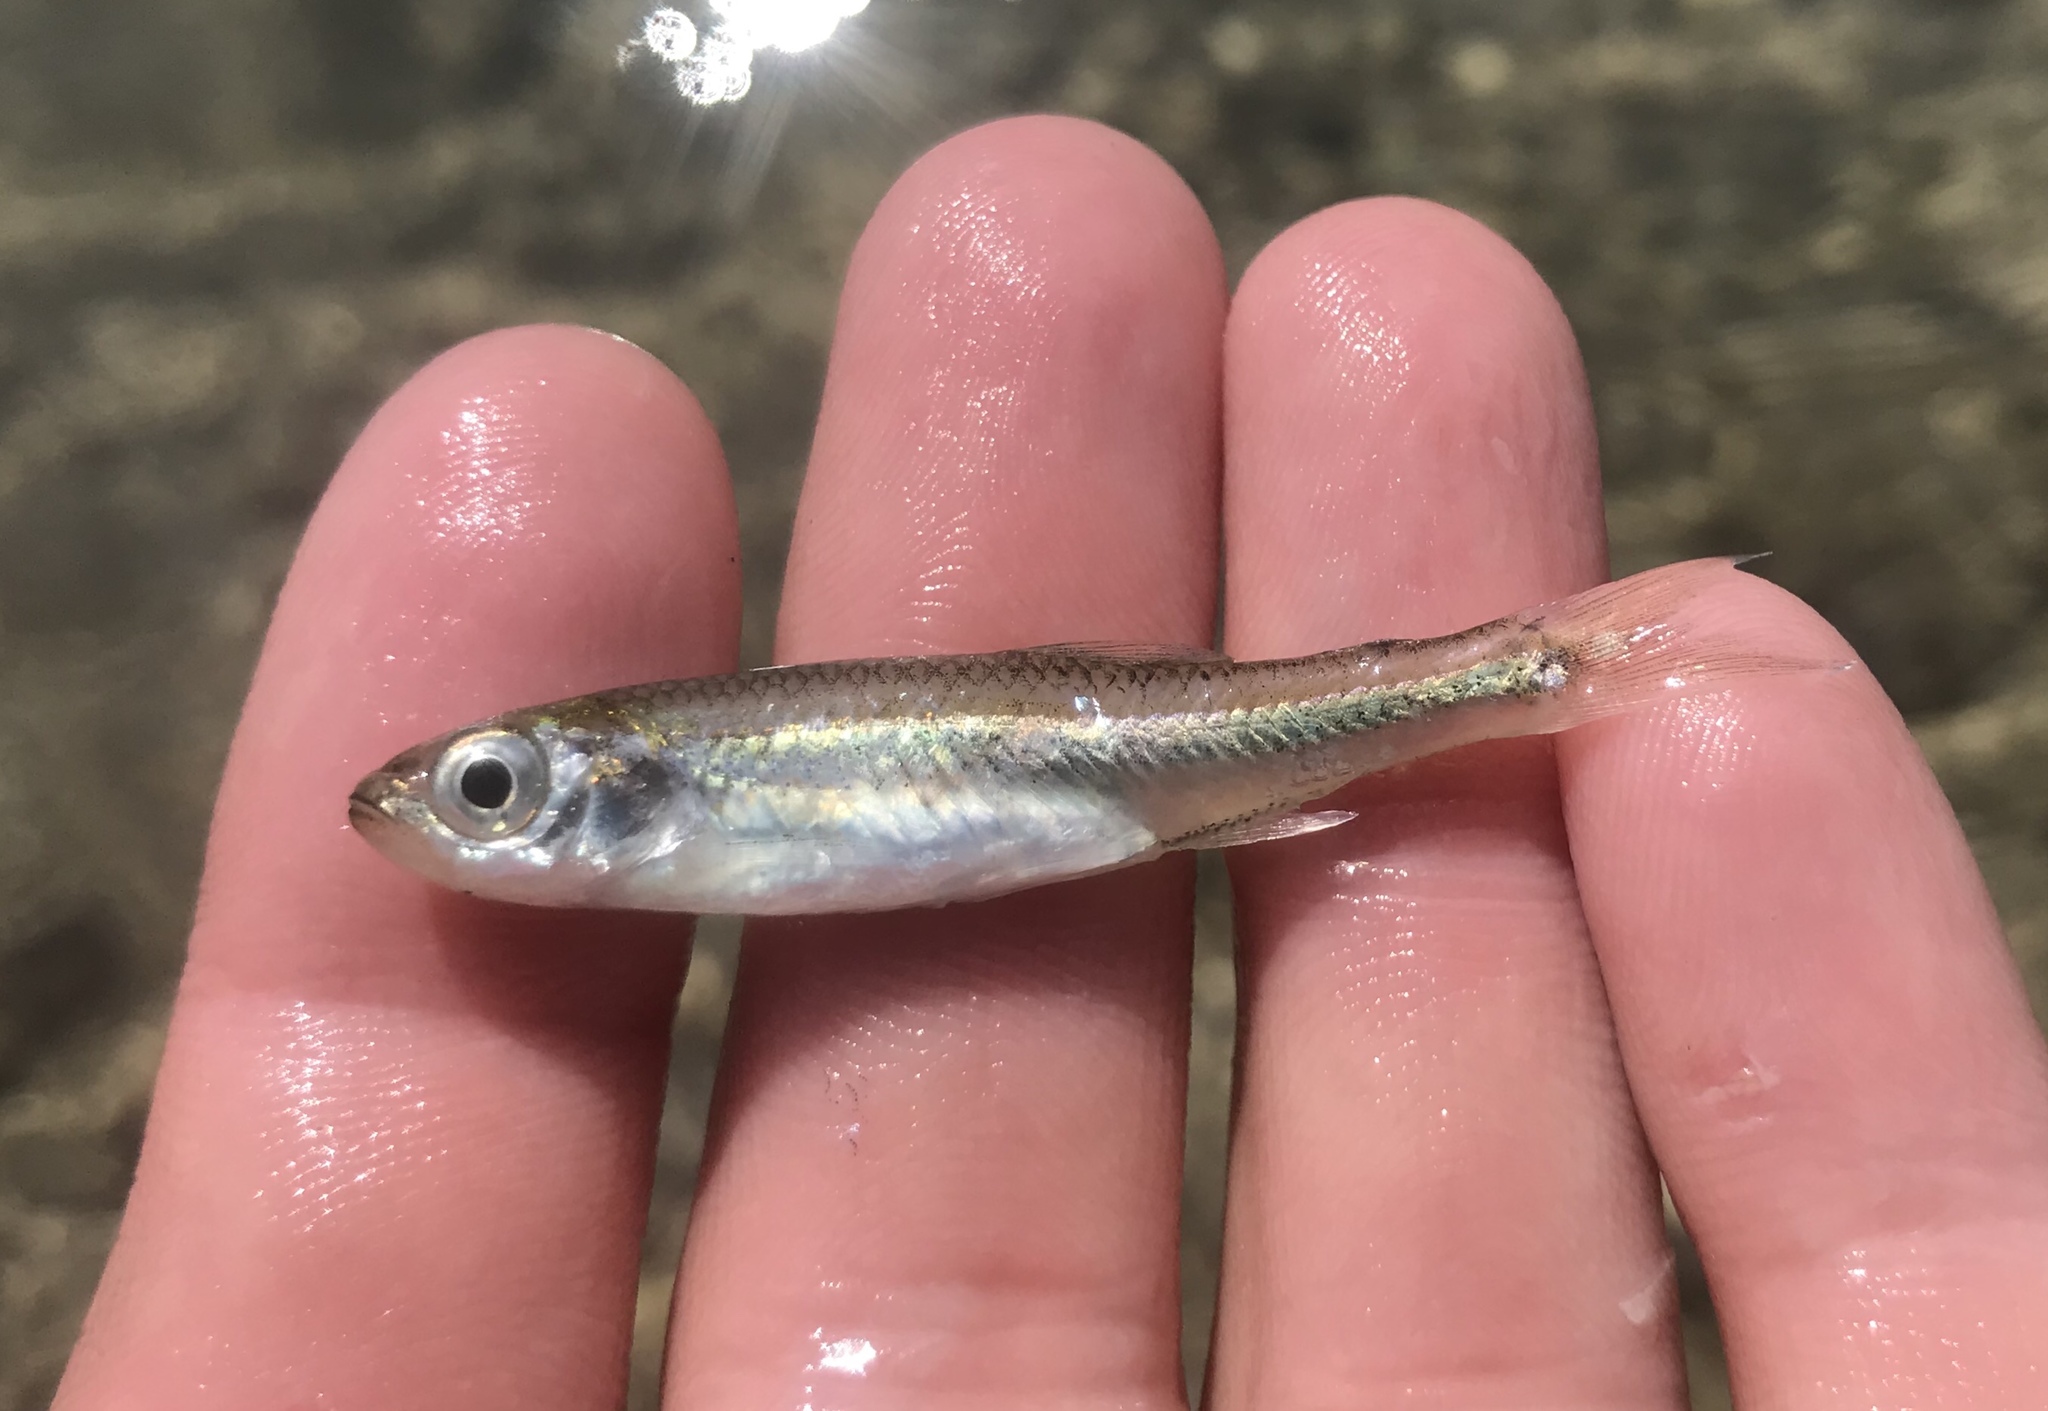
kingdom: Animalia
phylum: Chordata
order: Cypriniformes
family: Cyprinidae
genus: Notropis
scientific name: Notropis amabilis
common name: Texas shiner
